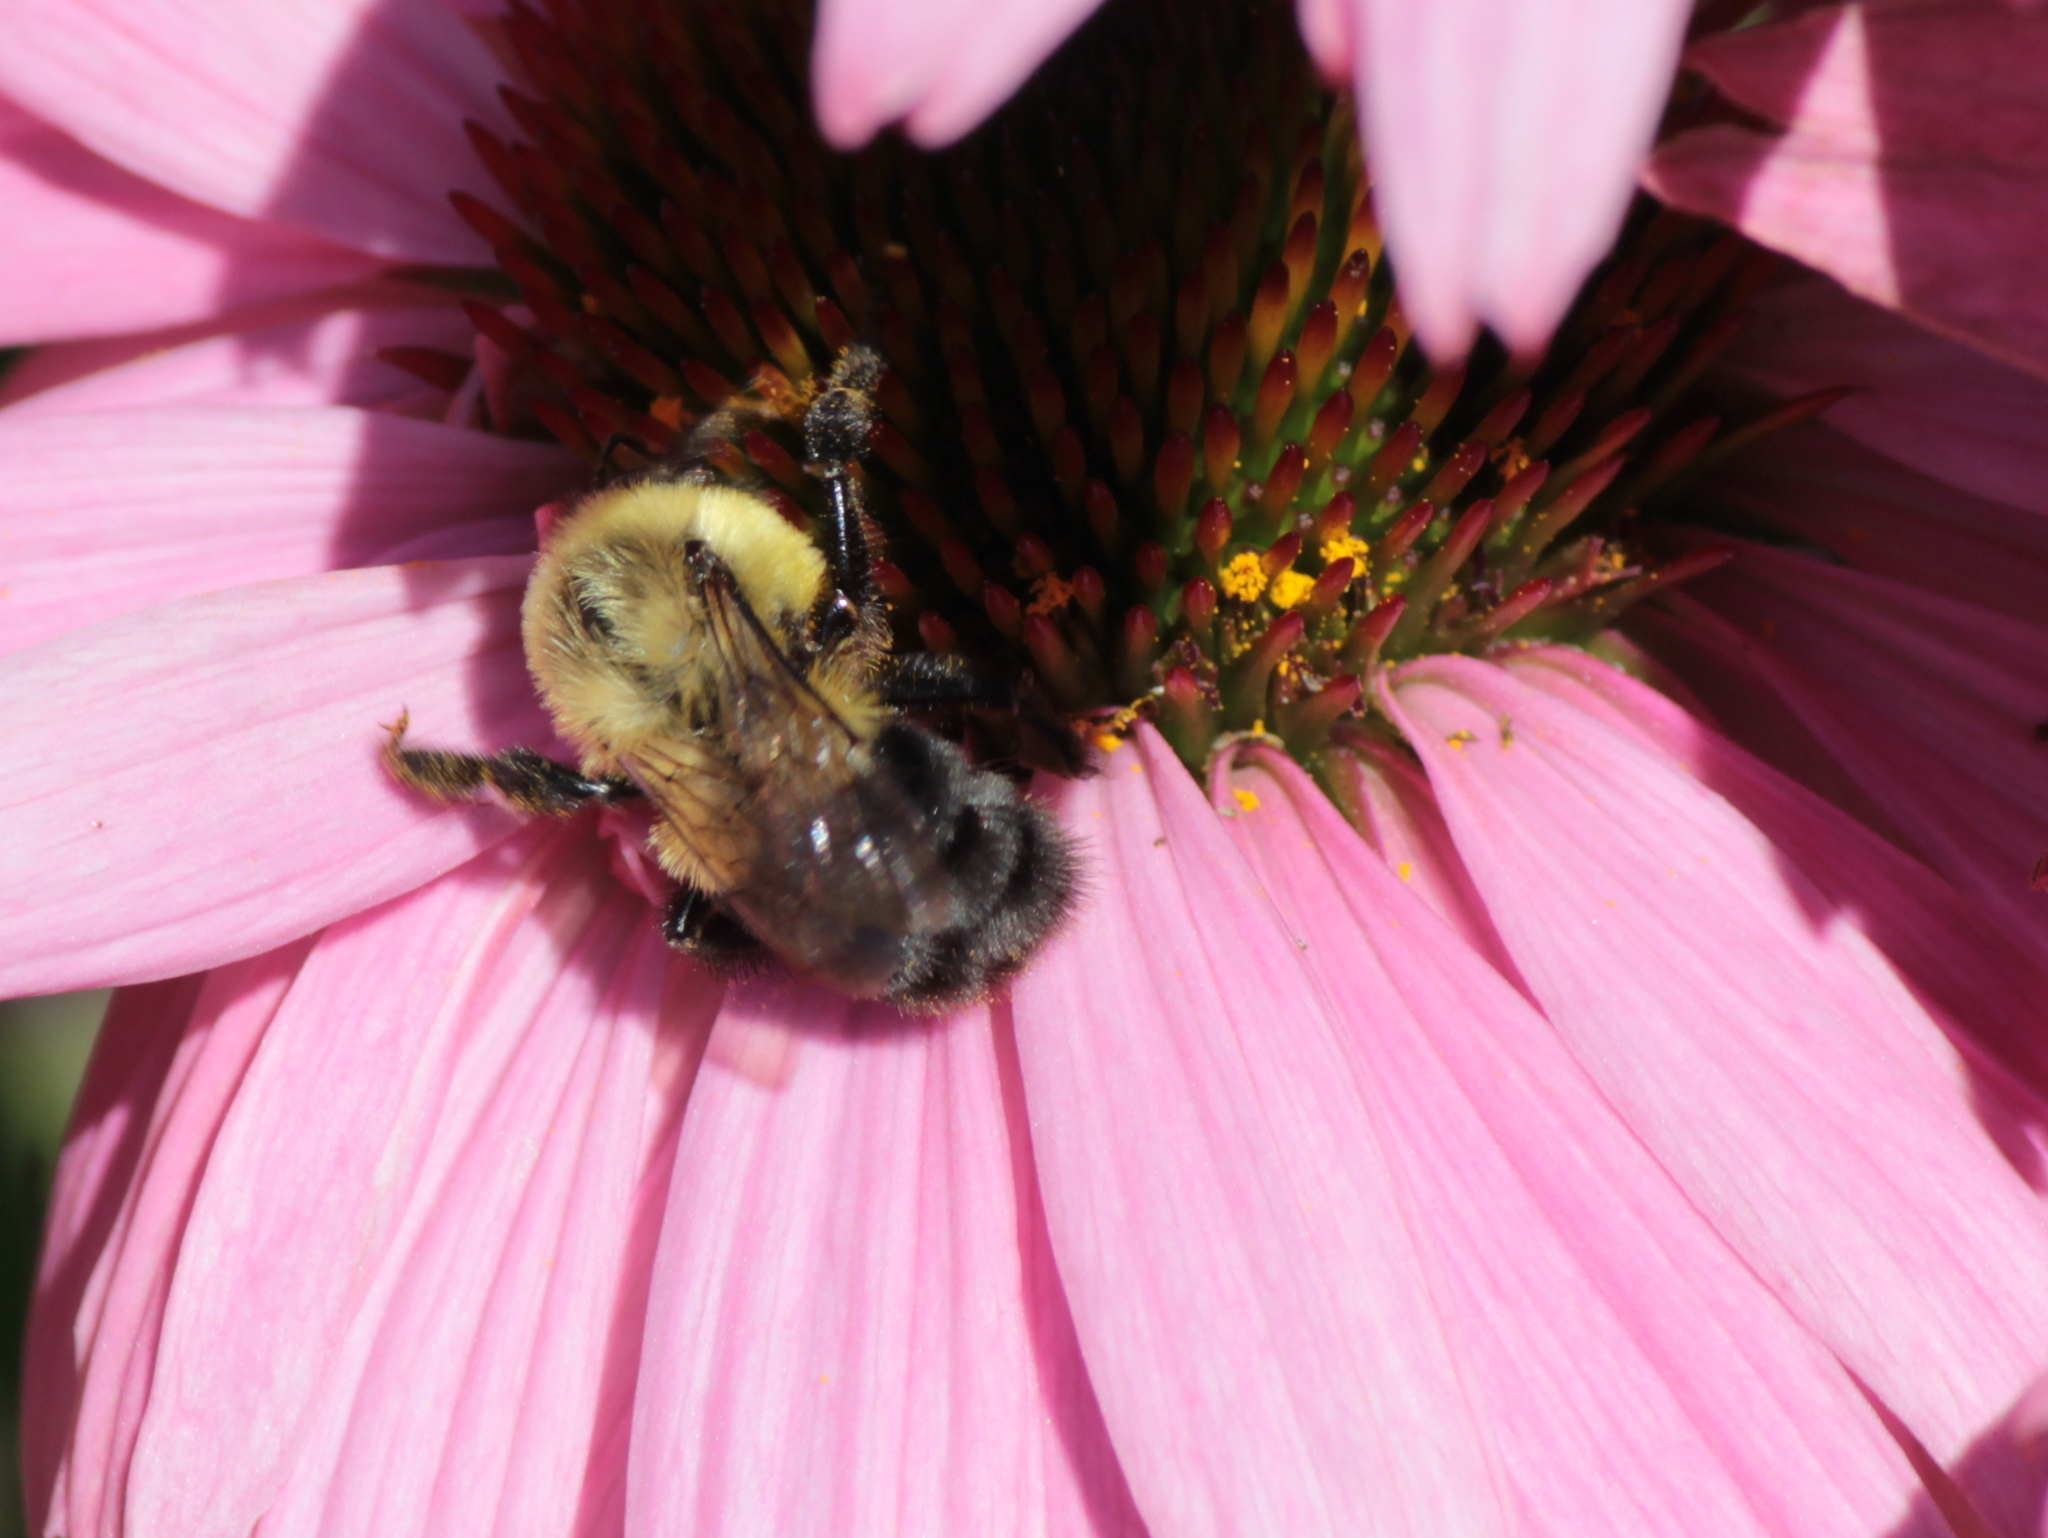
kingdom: Animalia
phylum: Arthropoda
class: Insecta
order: Hymenoptera
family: Apidae
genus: Bombus
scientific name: Bombus impatiens
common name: Common eastern bumble bee
